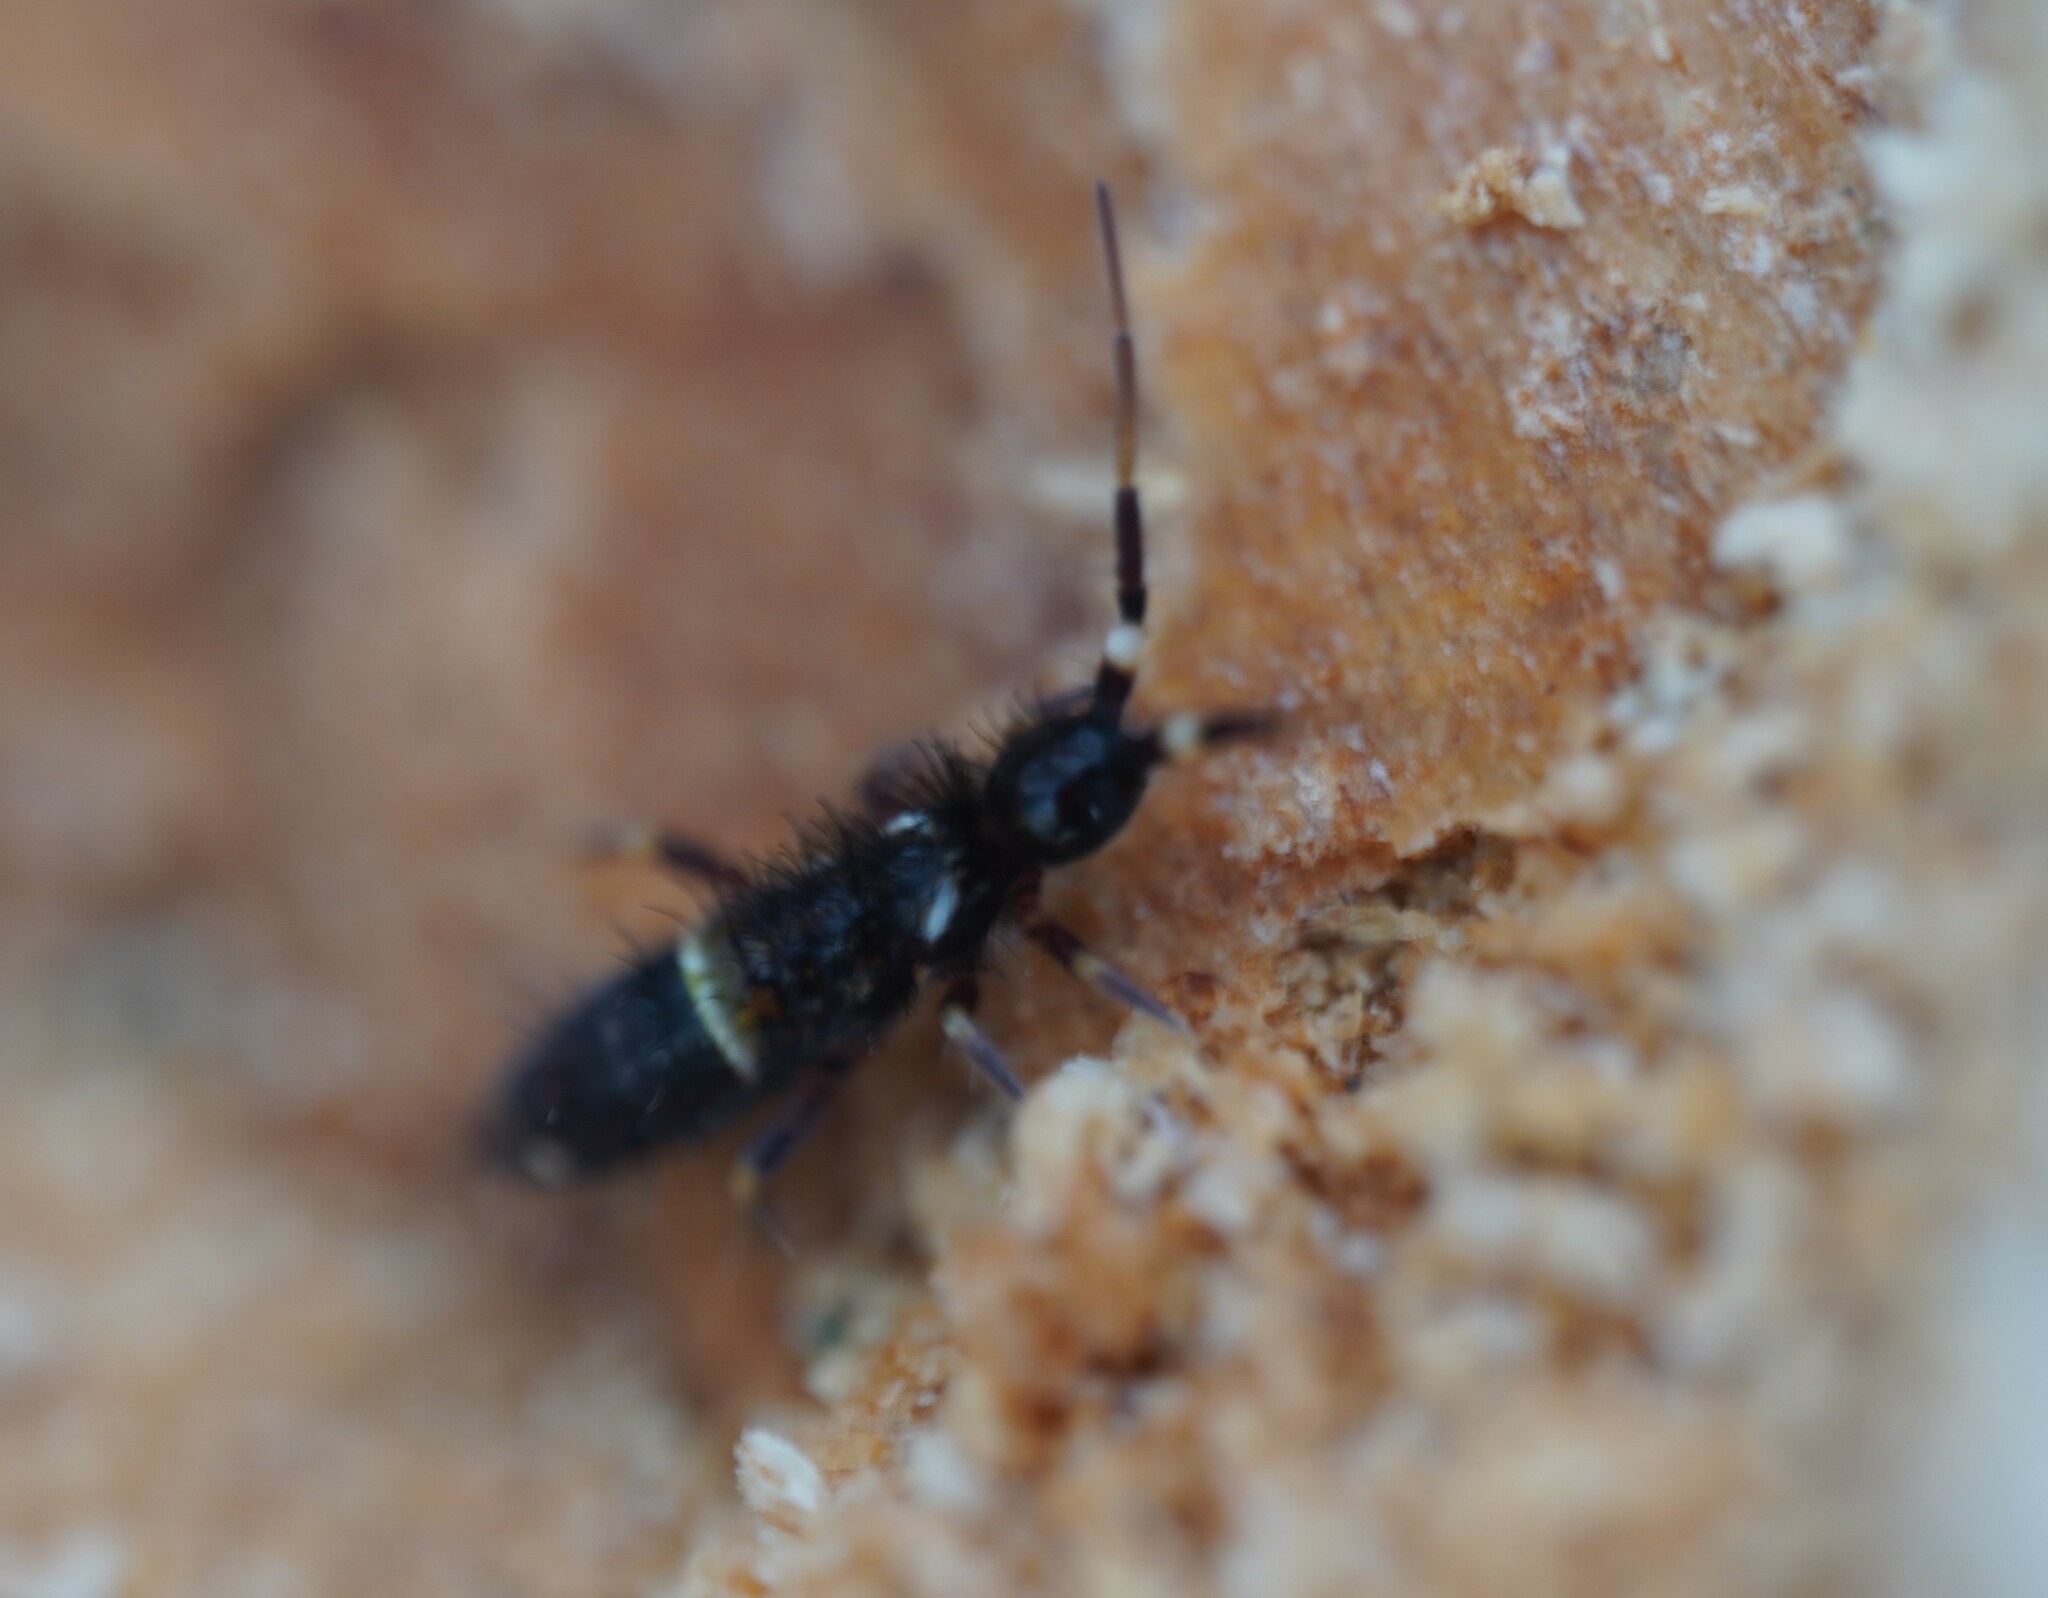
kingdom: Animalia
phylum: Arthropoda
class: Collembola
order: Entomobryomorpha
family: Orchesellidae
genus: Orchesella
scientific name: Orchesella cincta
